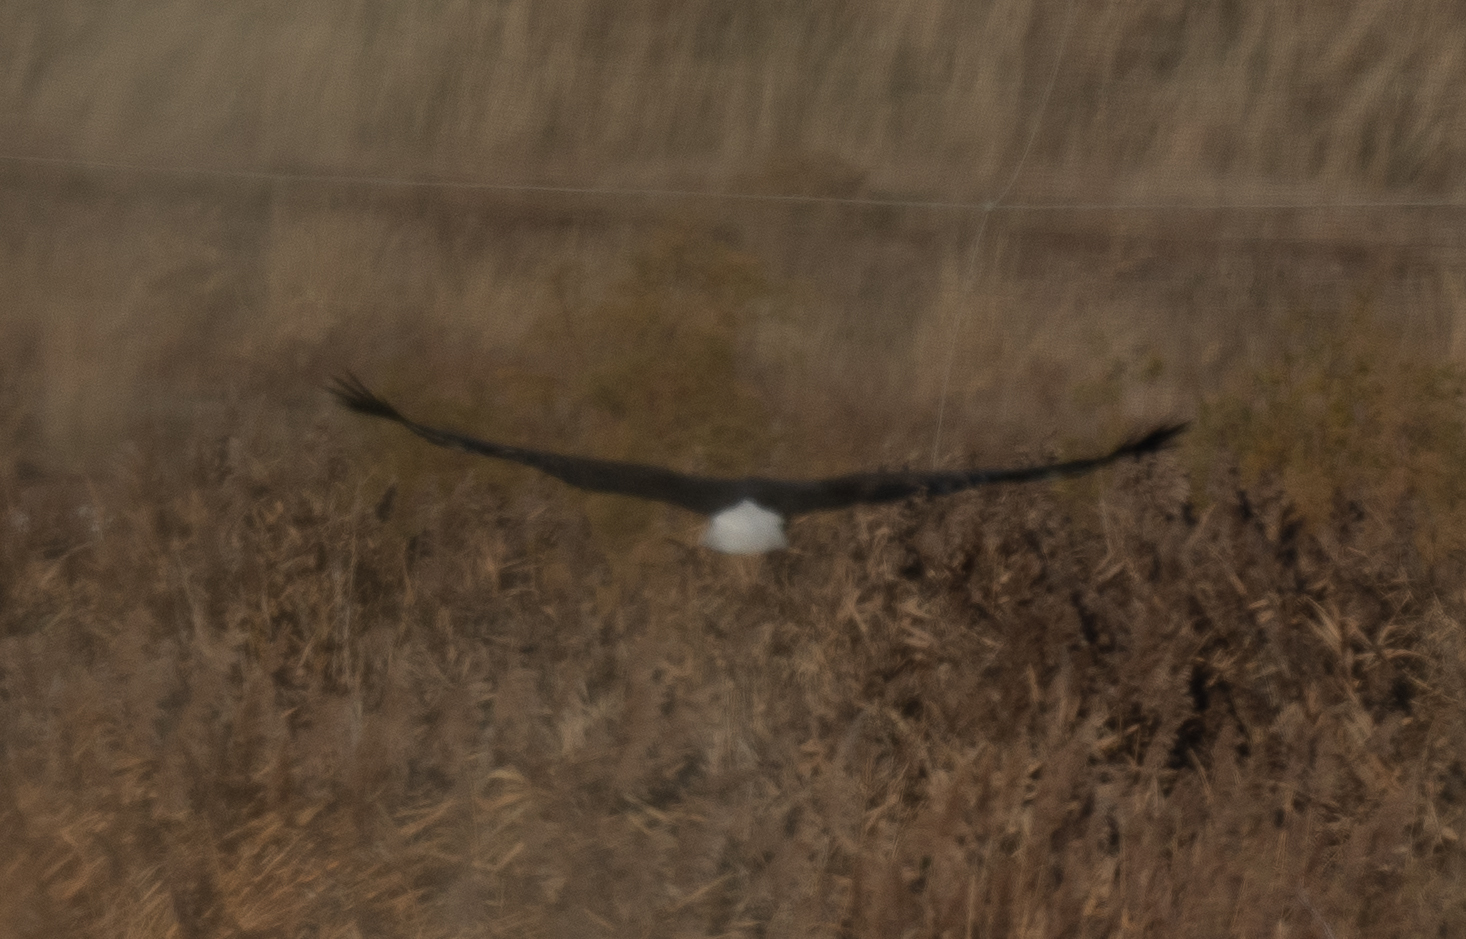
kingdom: Animalia
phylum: Chordata
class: Aves
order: Accipitriformes
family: Accipitridae
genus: Haliaeetus
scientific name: Haliaeetus leucocephalus
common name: Bald eagle
